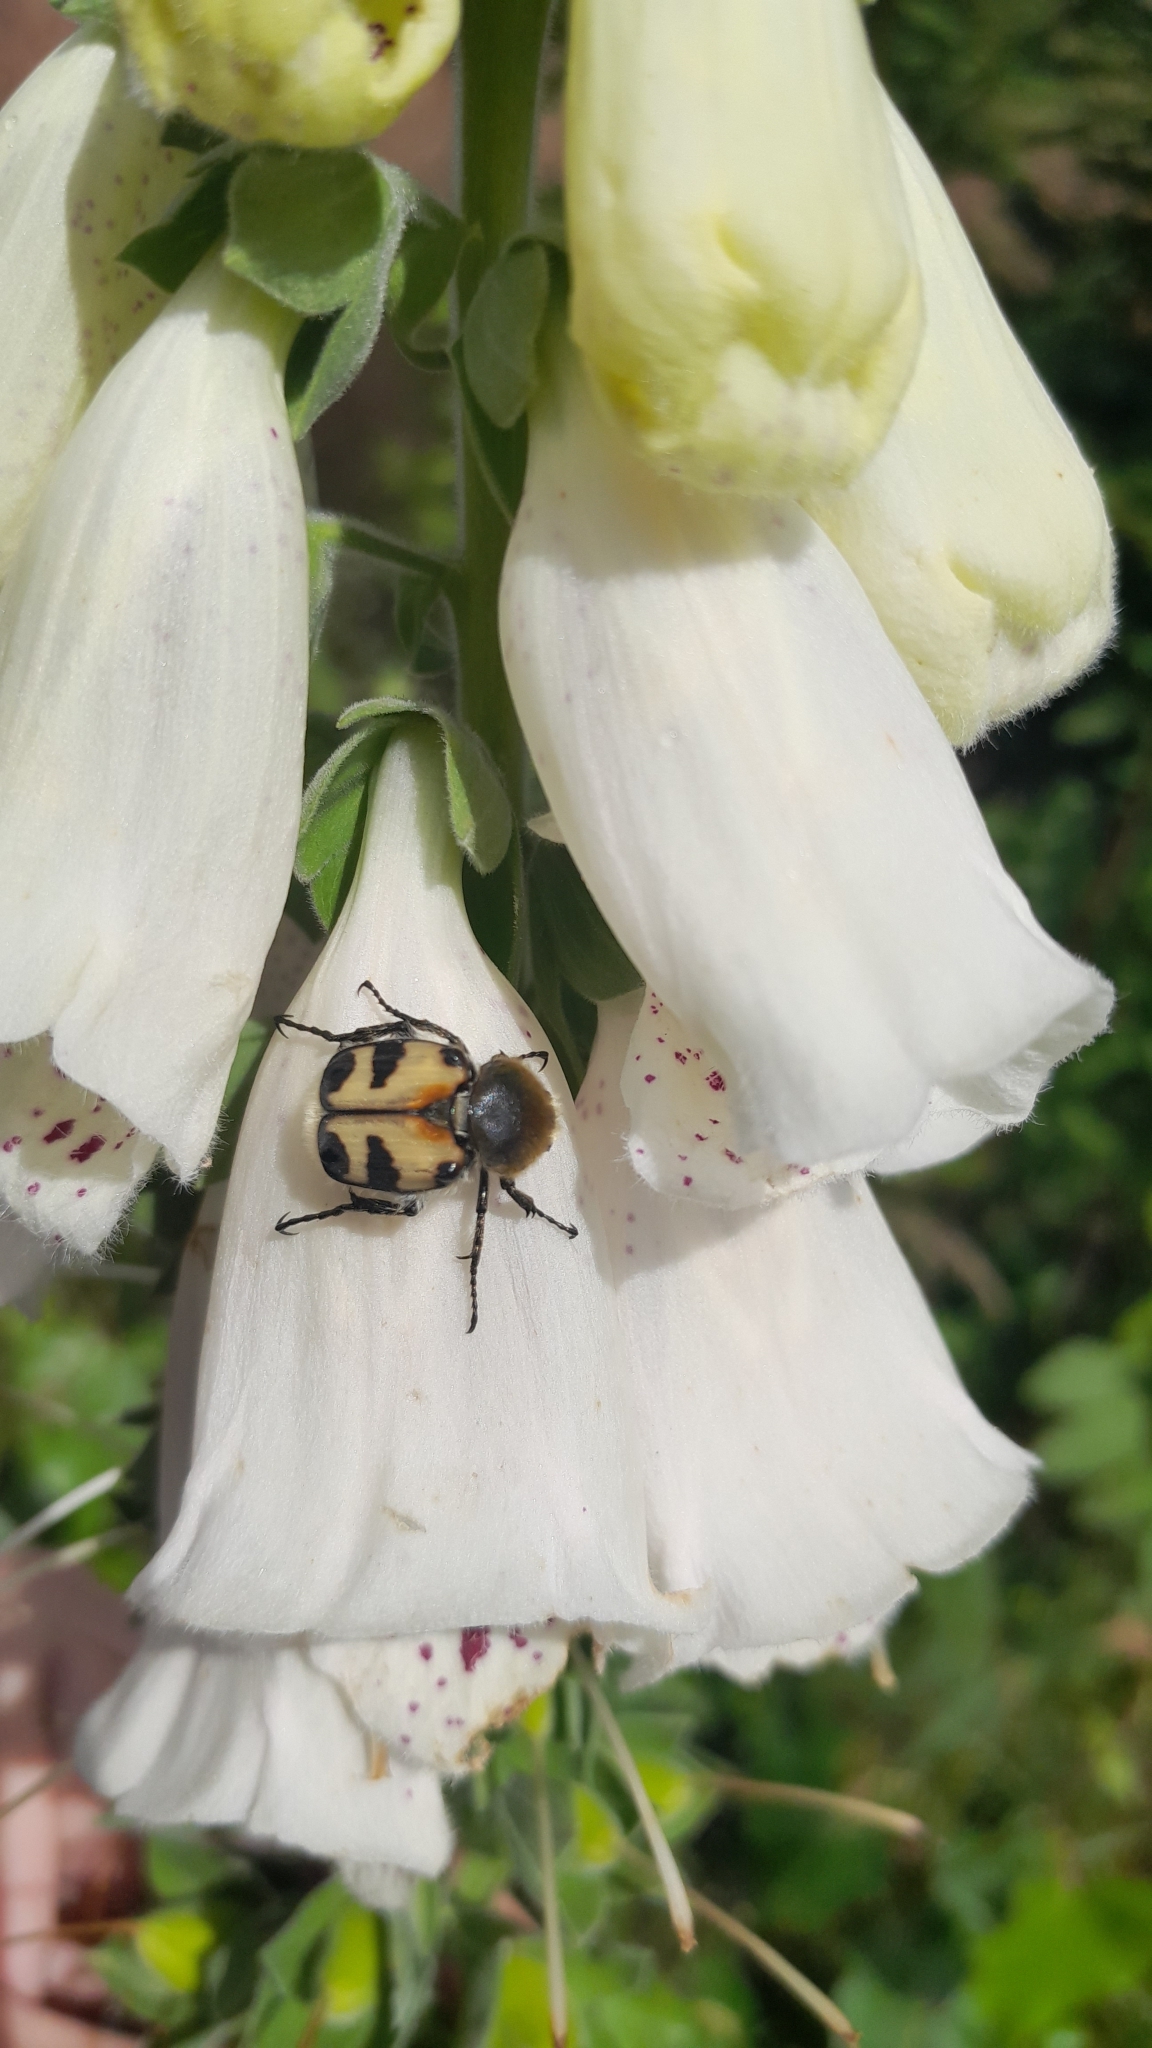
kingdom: Animalia
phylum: Arthropoda
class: Insecta
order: Coleoptera
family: Scarabaeidae
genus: Trichius
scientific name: Trichius fasciatus
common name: Bee beetle
